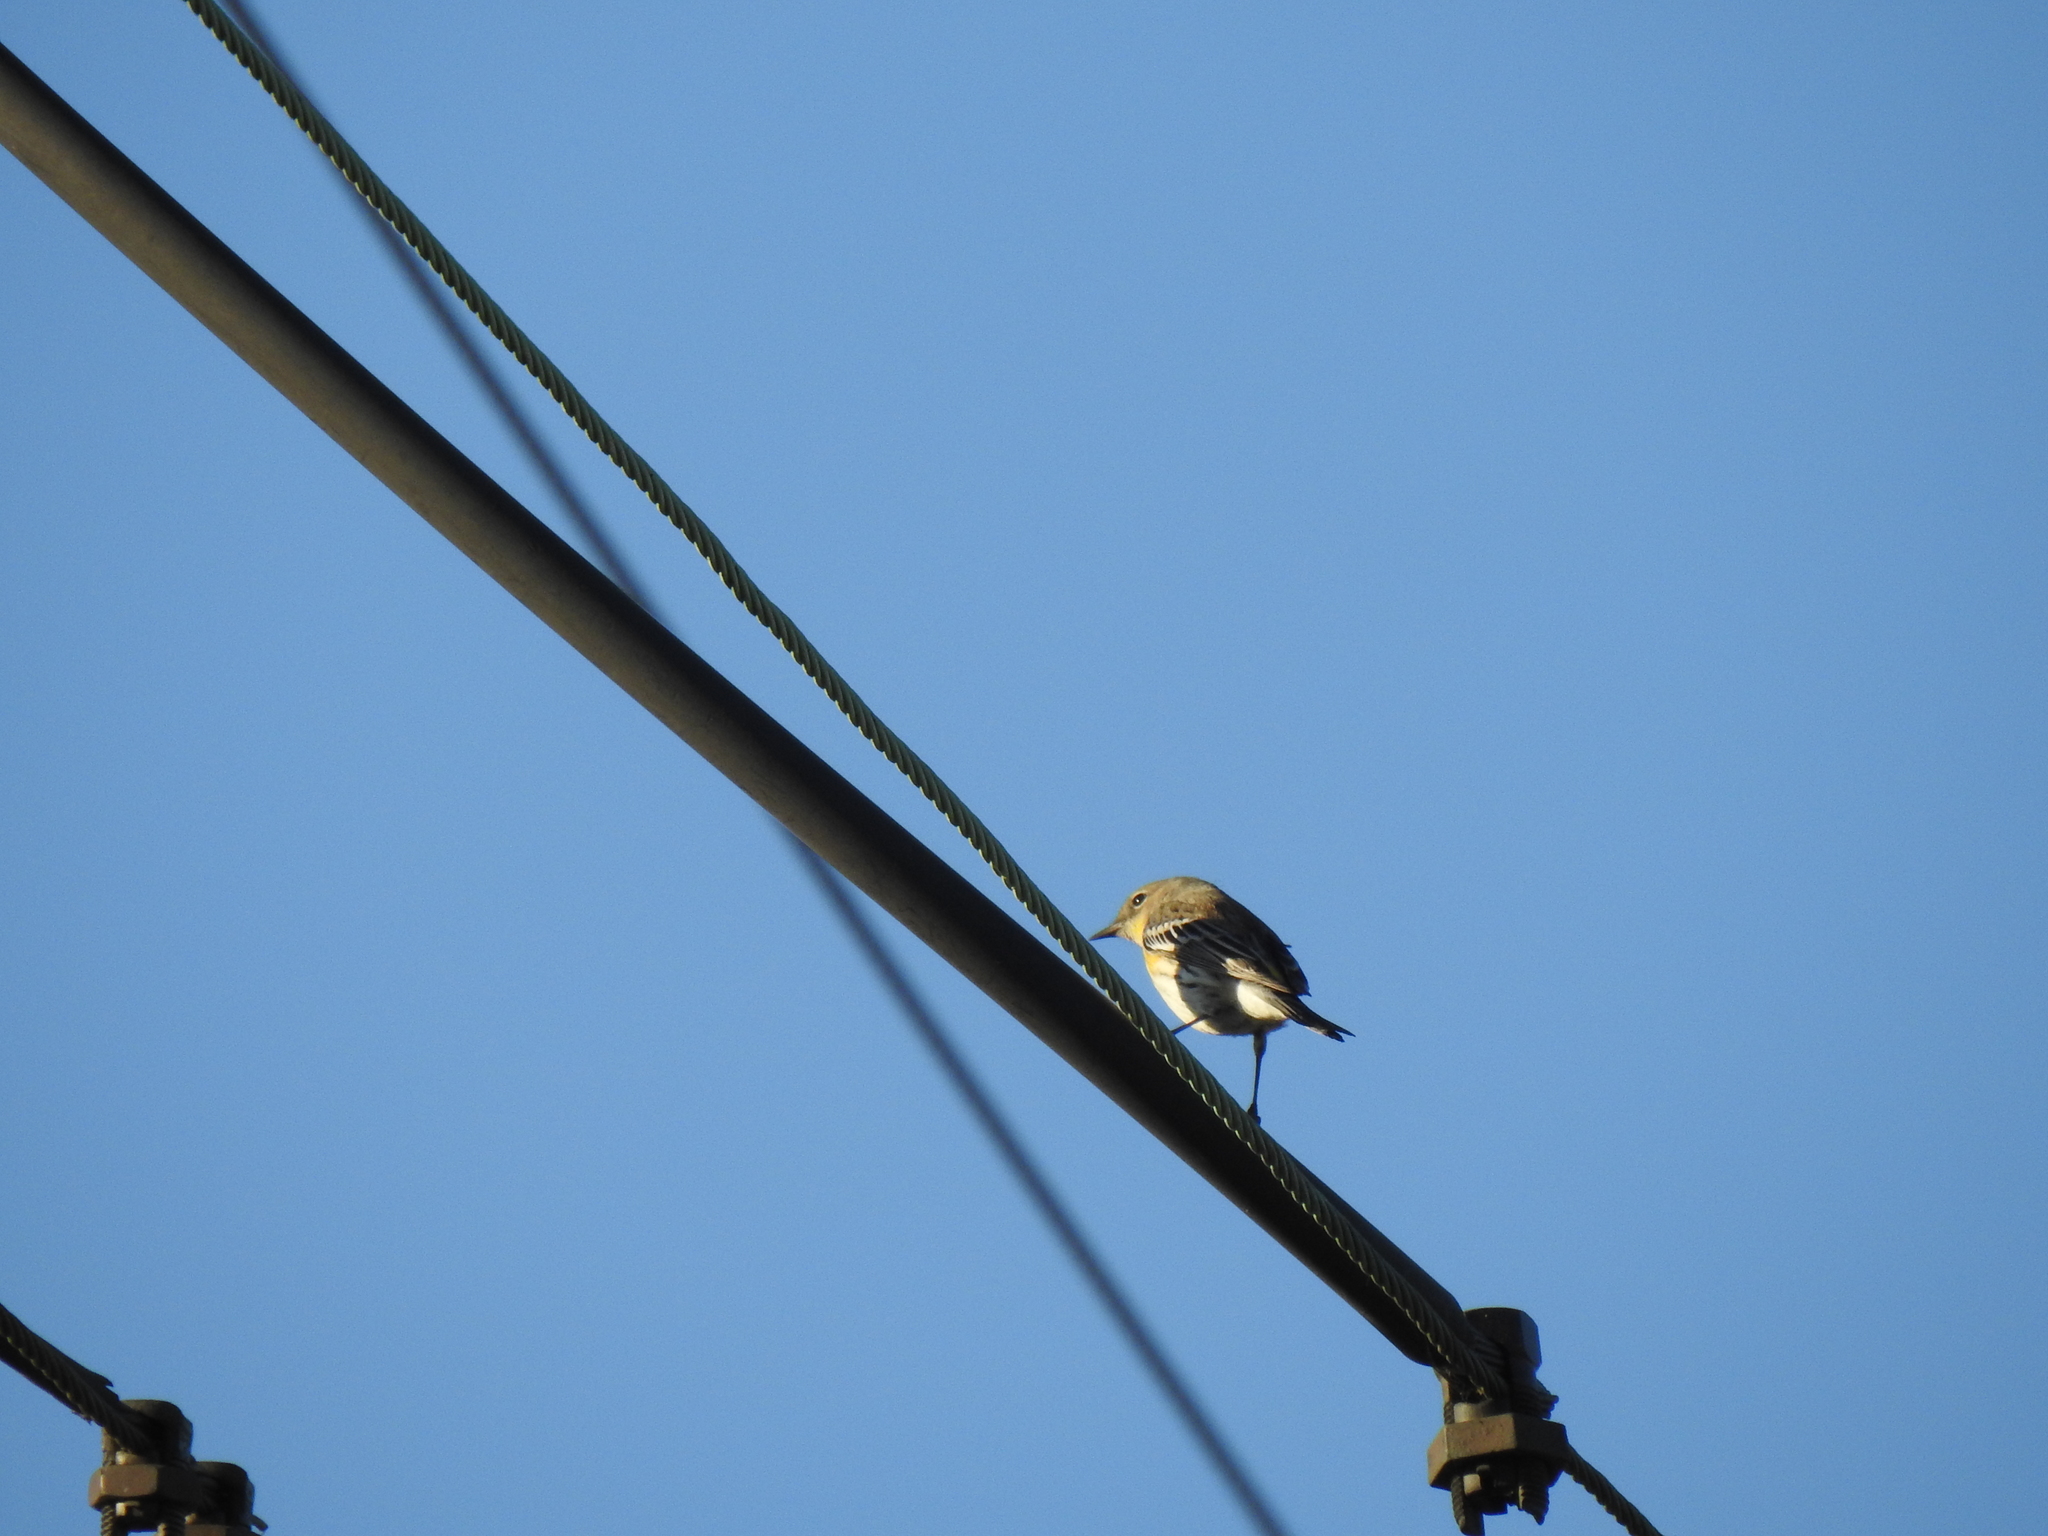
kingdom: Animalia
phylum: Chordata
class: Aves
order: Passeriformes
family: Parulidae
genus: Setophaga
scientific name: Setophaga coronata
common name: Myrtle warbler
